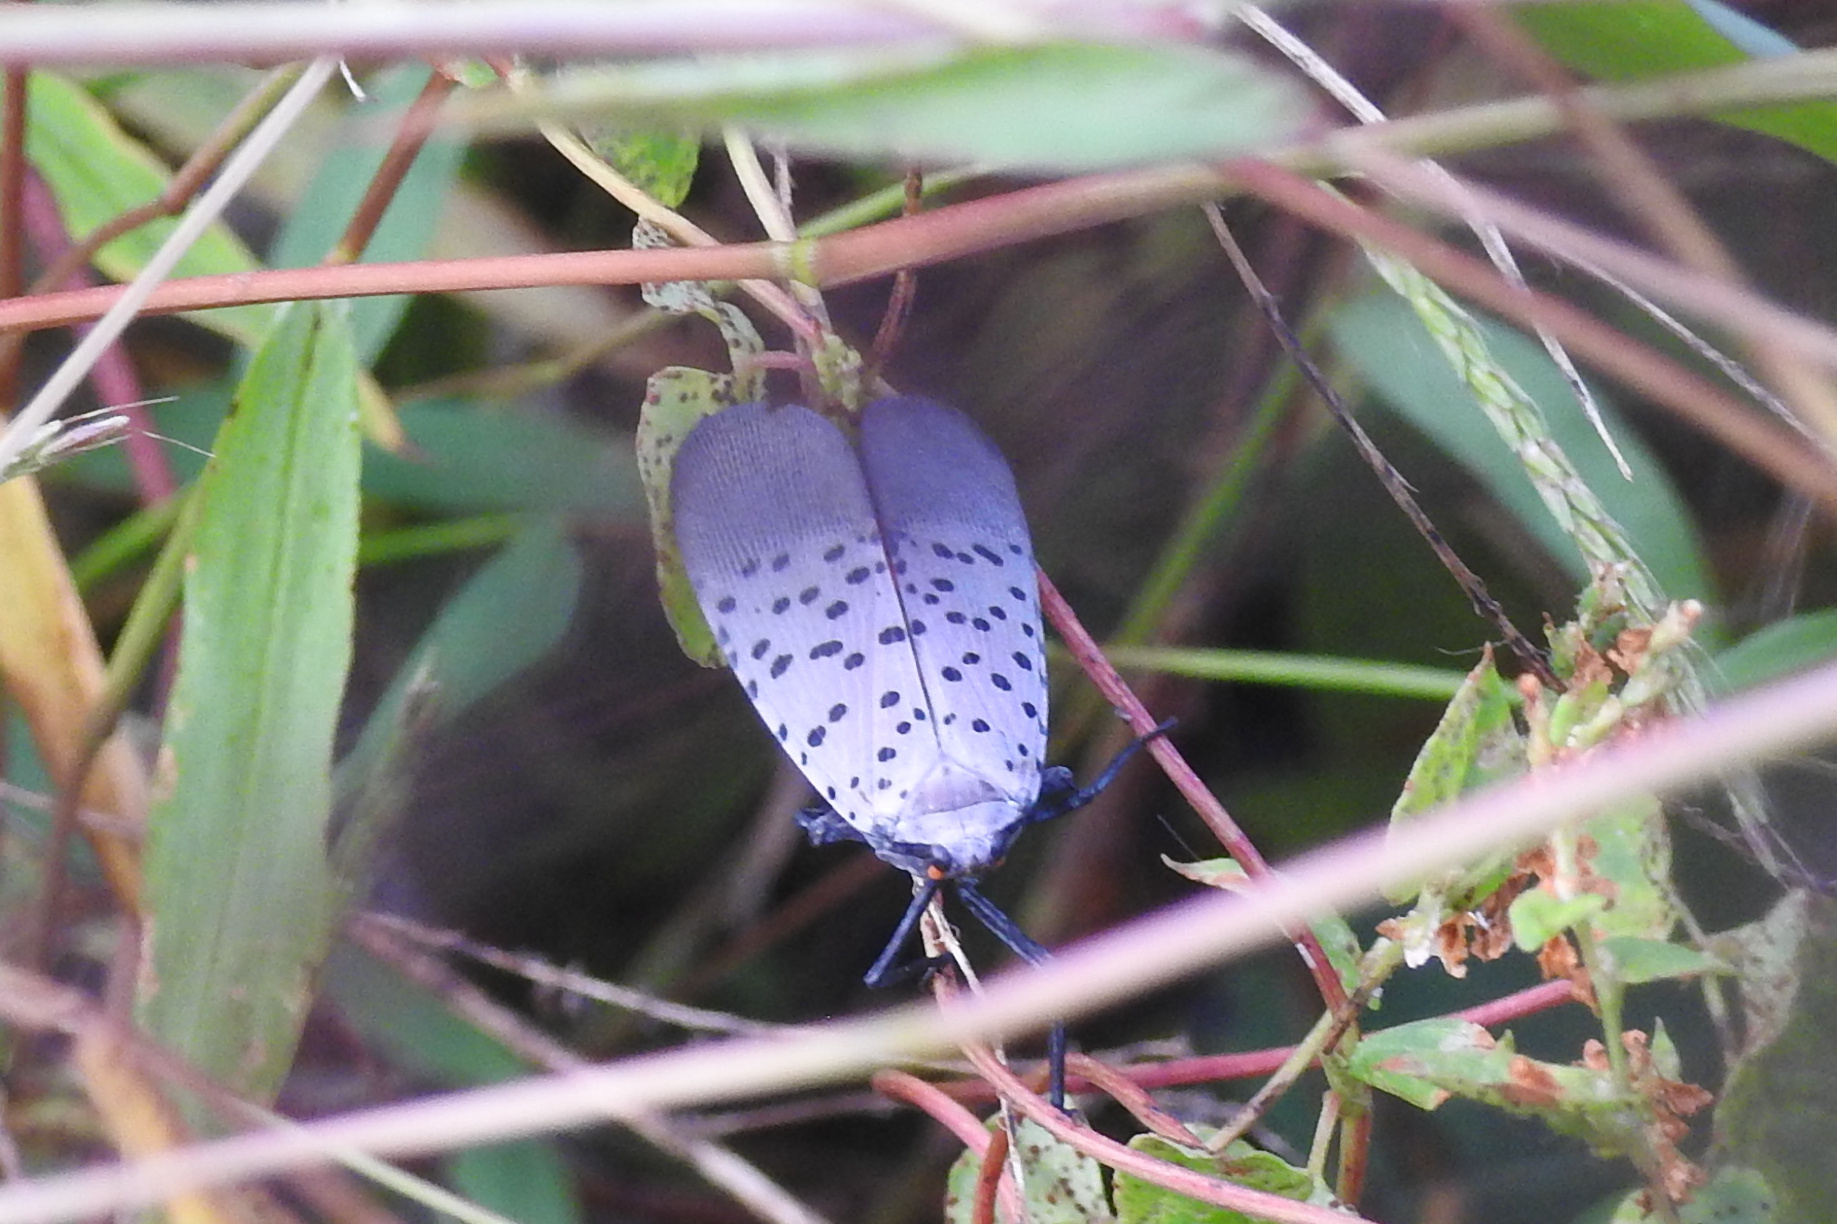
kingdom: Animalia
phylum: Arthropoda
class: Insecta
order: Hemiptera
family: Fulgoridae
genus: Lycorma
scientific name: Lycorma delicatula
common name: Spotted lanternfly
